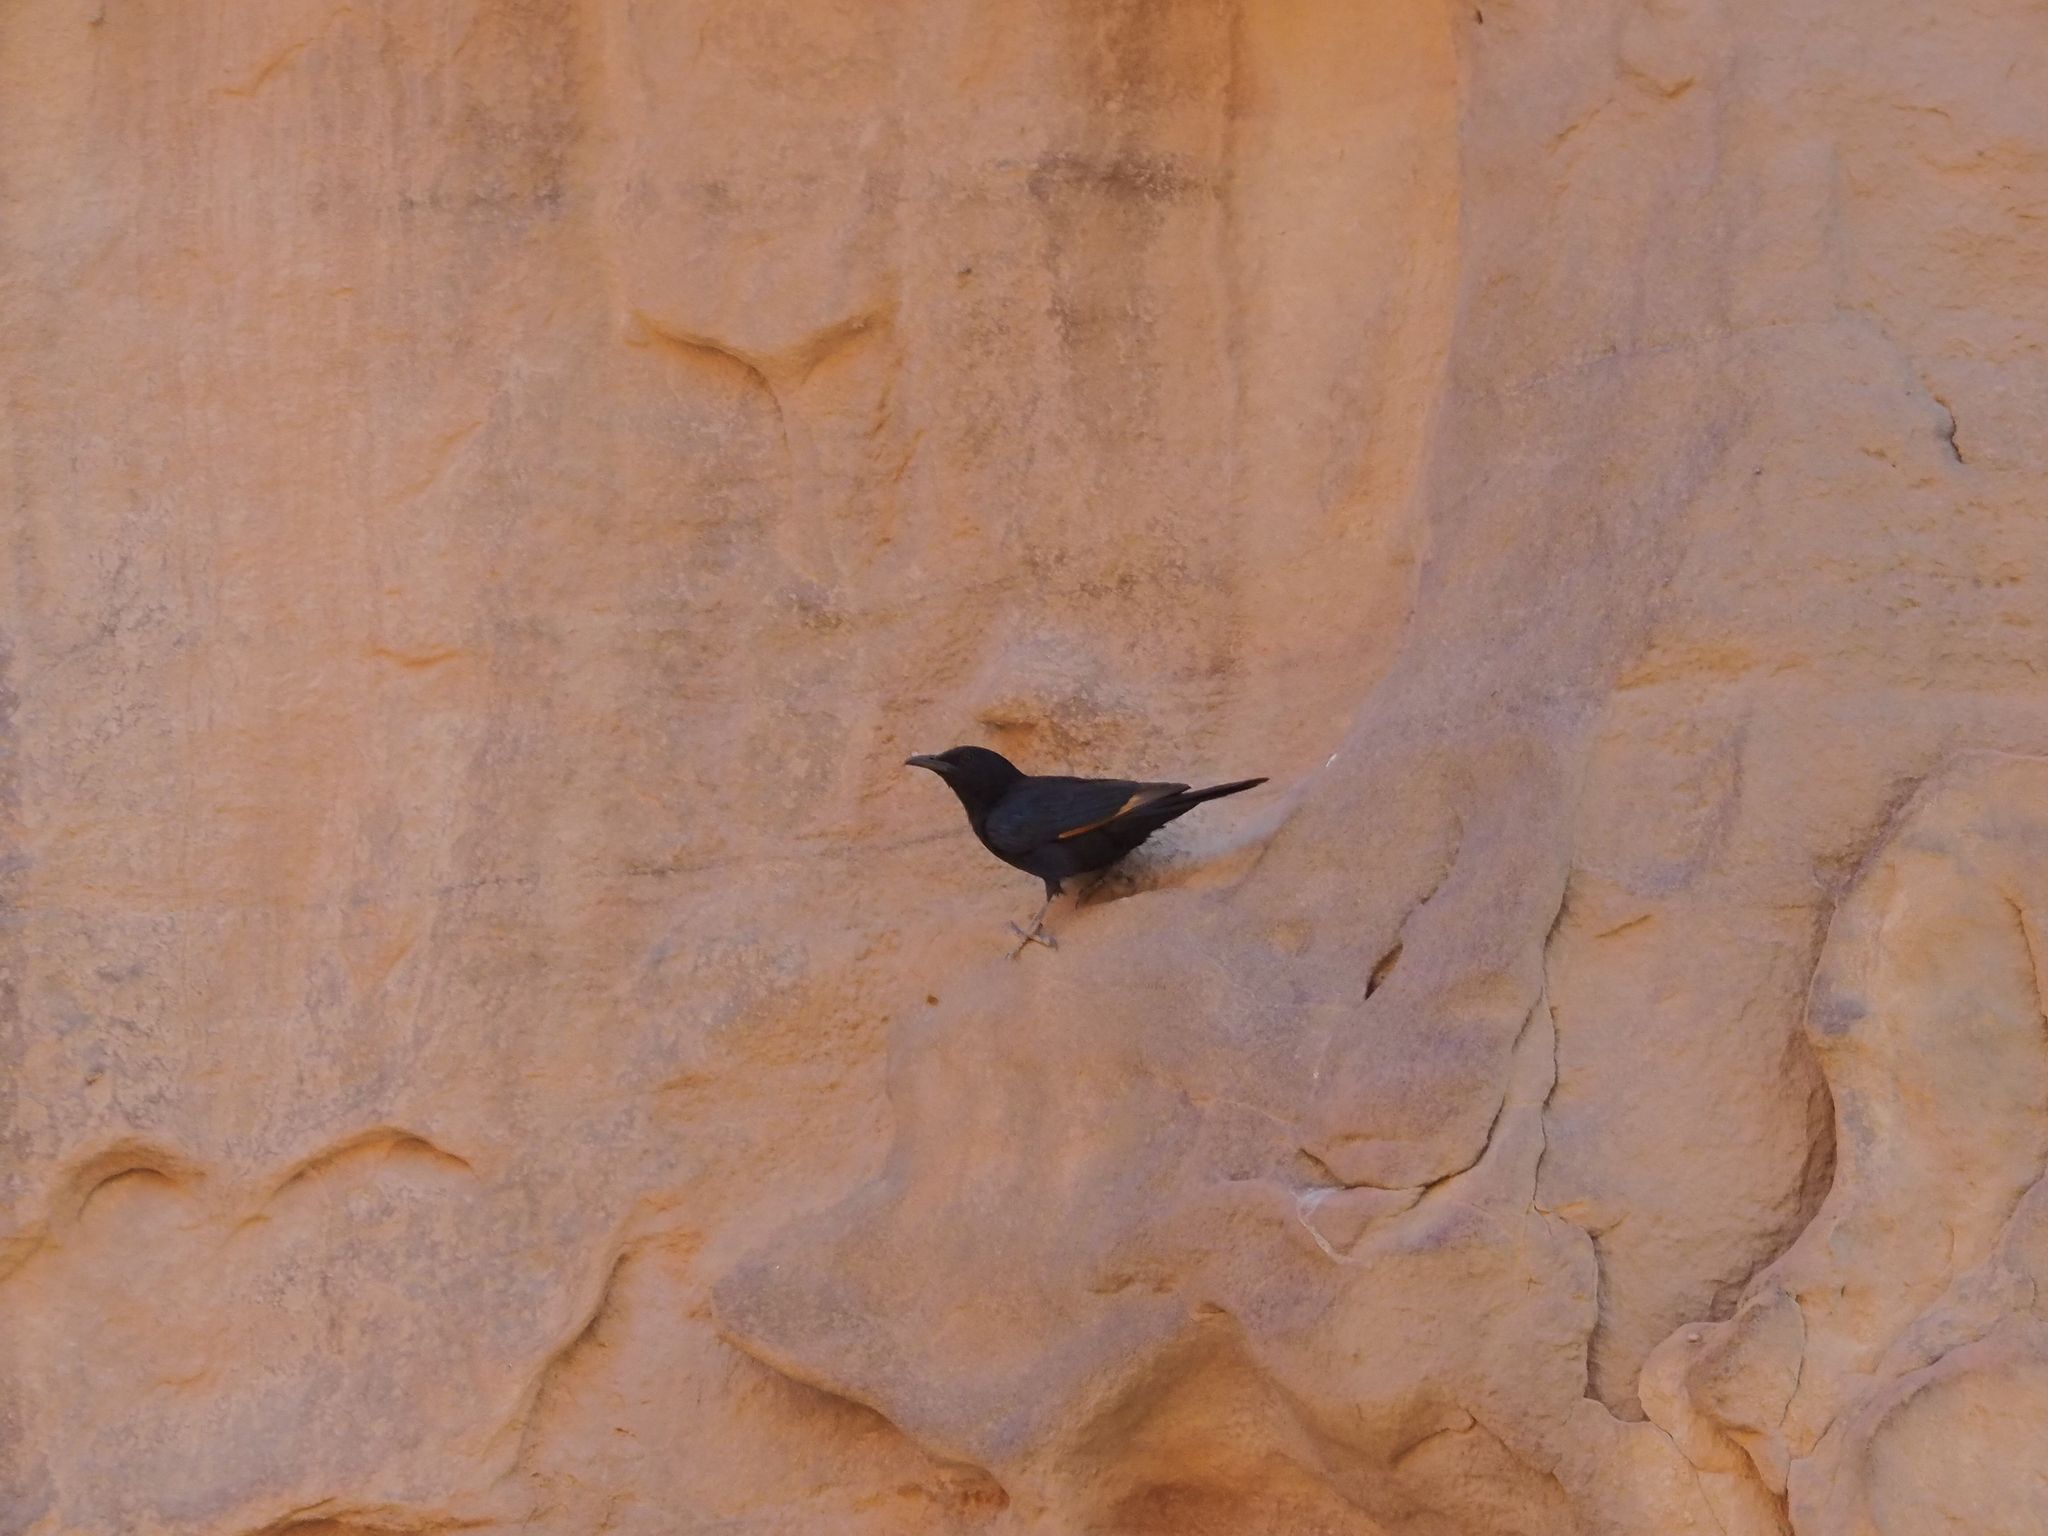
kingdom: Animalia
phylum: Chordata
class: Aves
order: Passeriformes
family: Sturnidae
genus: Onychognathus
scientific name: Onychognathus tristramii
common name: Tristram's starling
